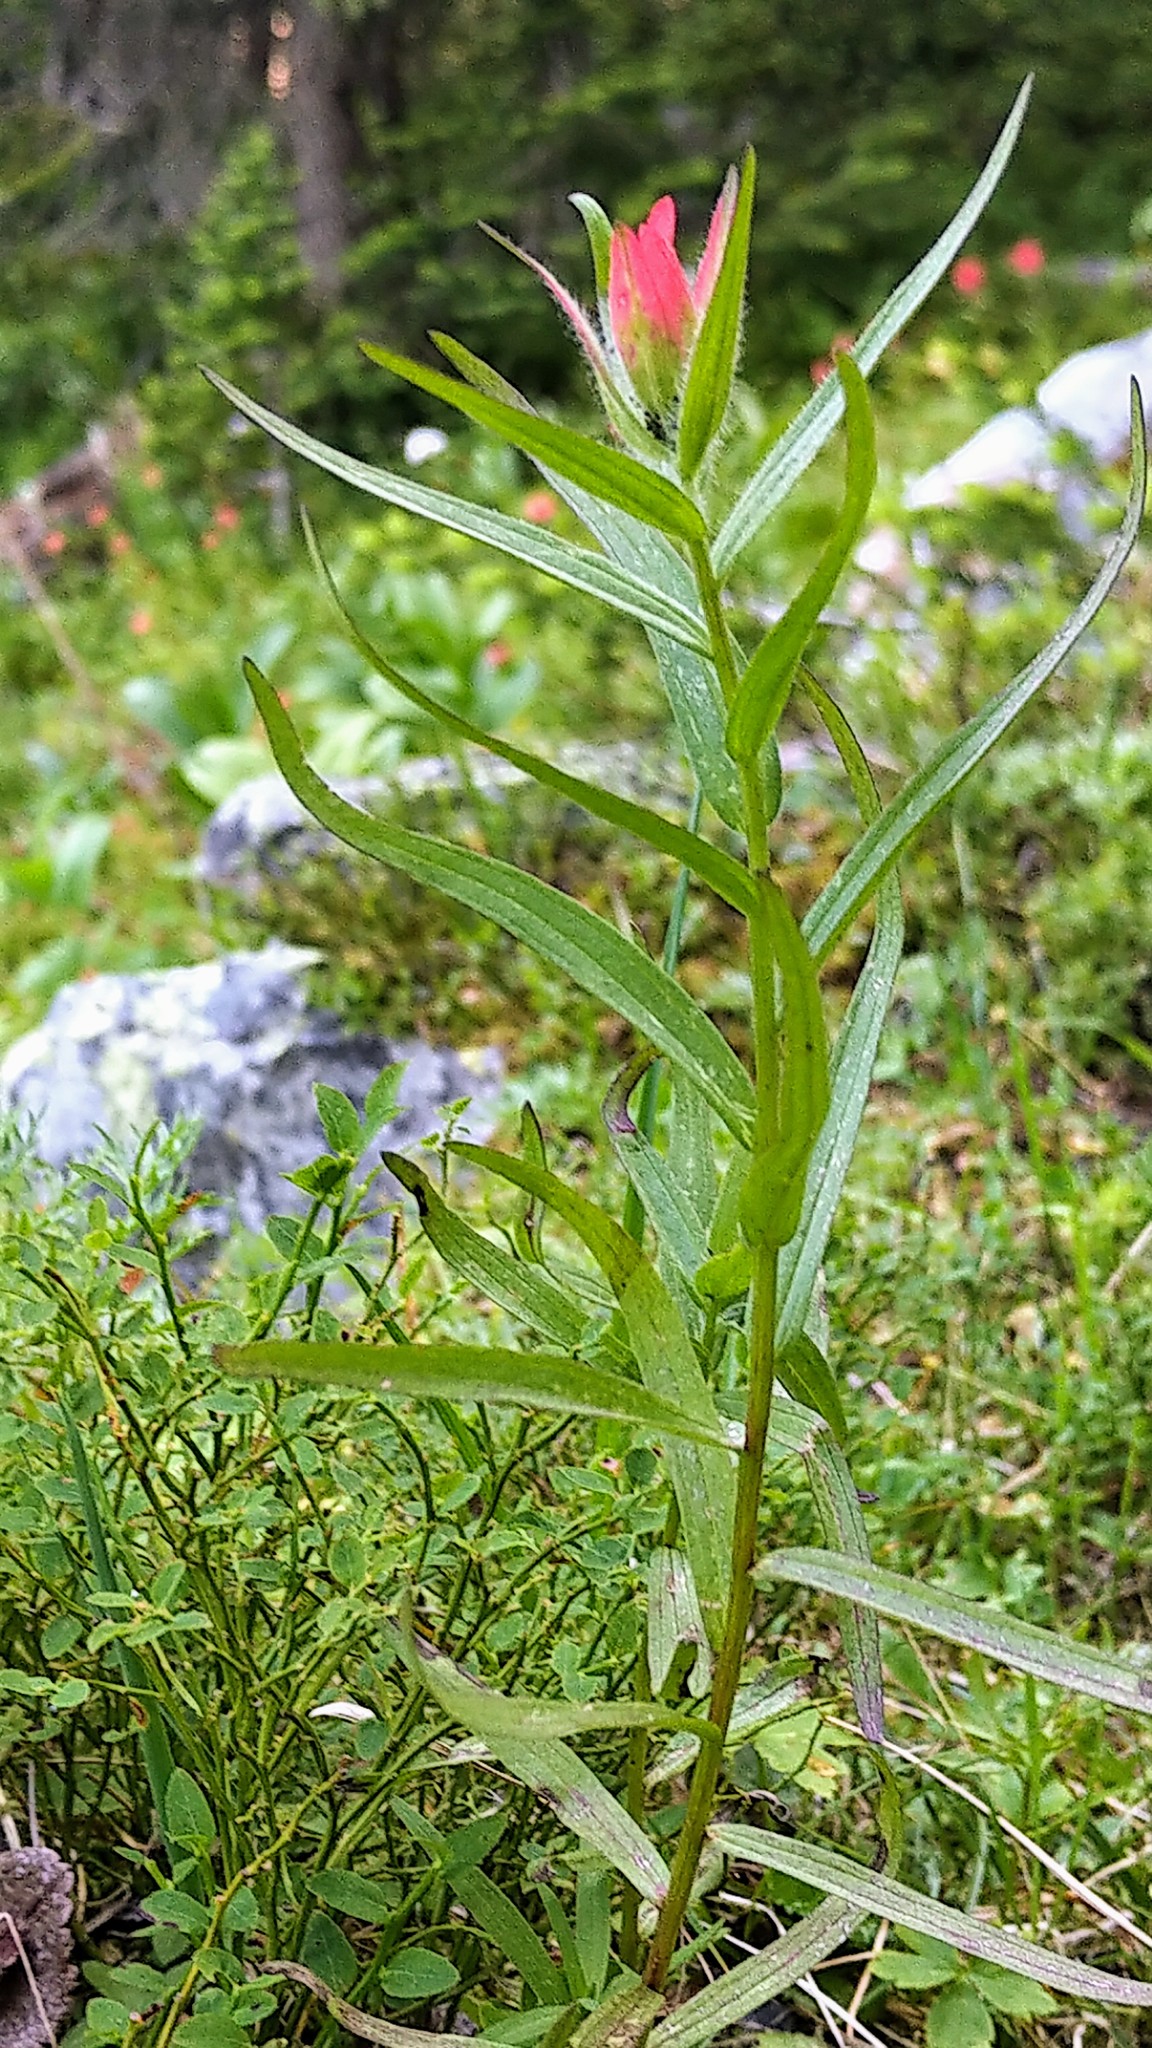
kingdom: Plantae
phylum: Tracheophyta
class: Magnoliopsida
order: Lamiales
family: Orobanchaceae
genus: Castilleja
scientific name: Castilleja rhexifolia
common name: Rocky mountain paintbrush
